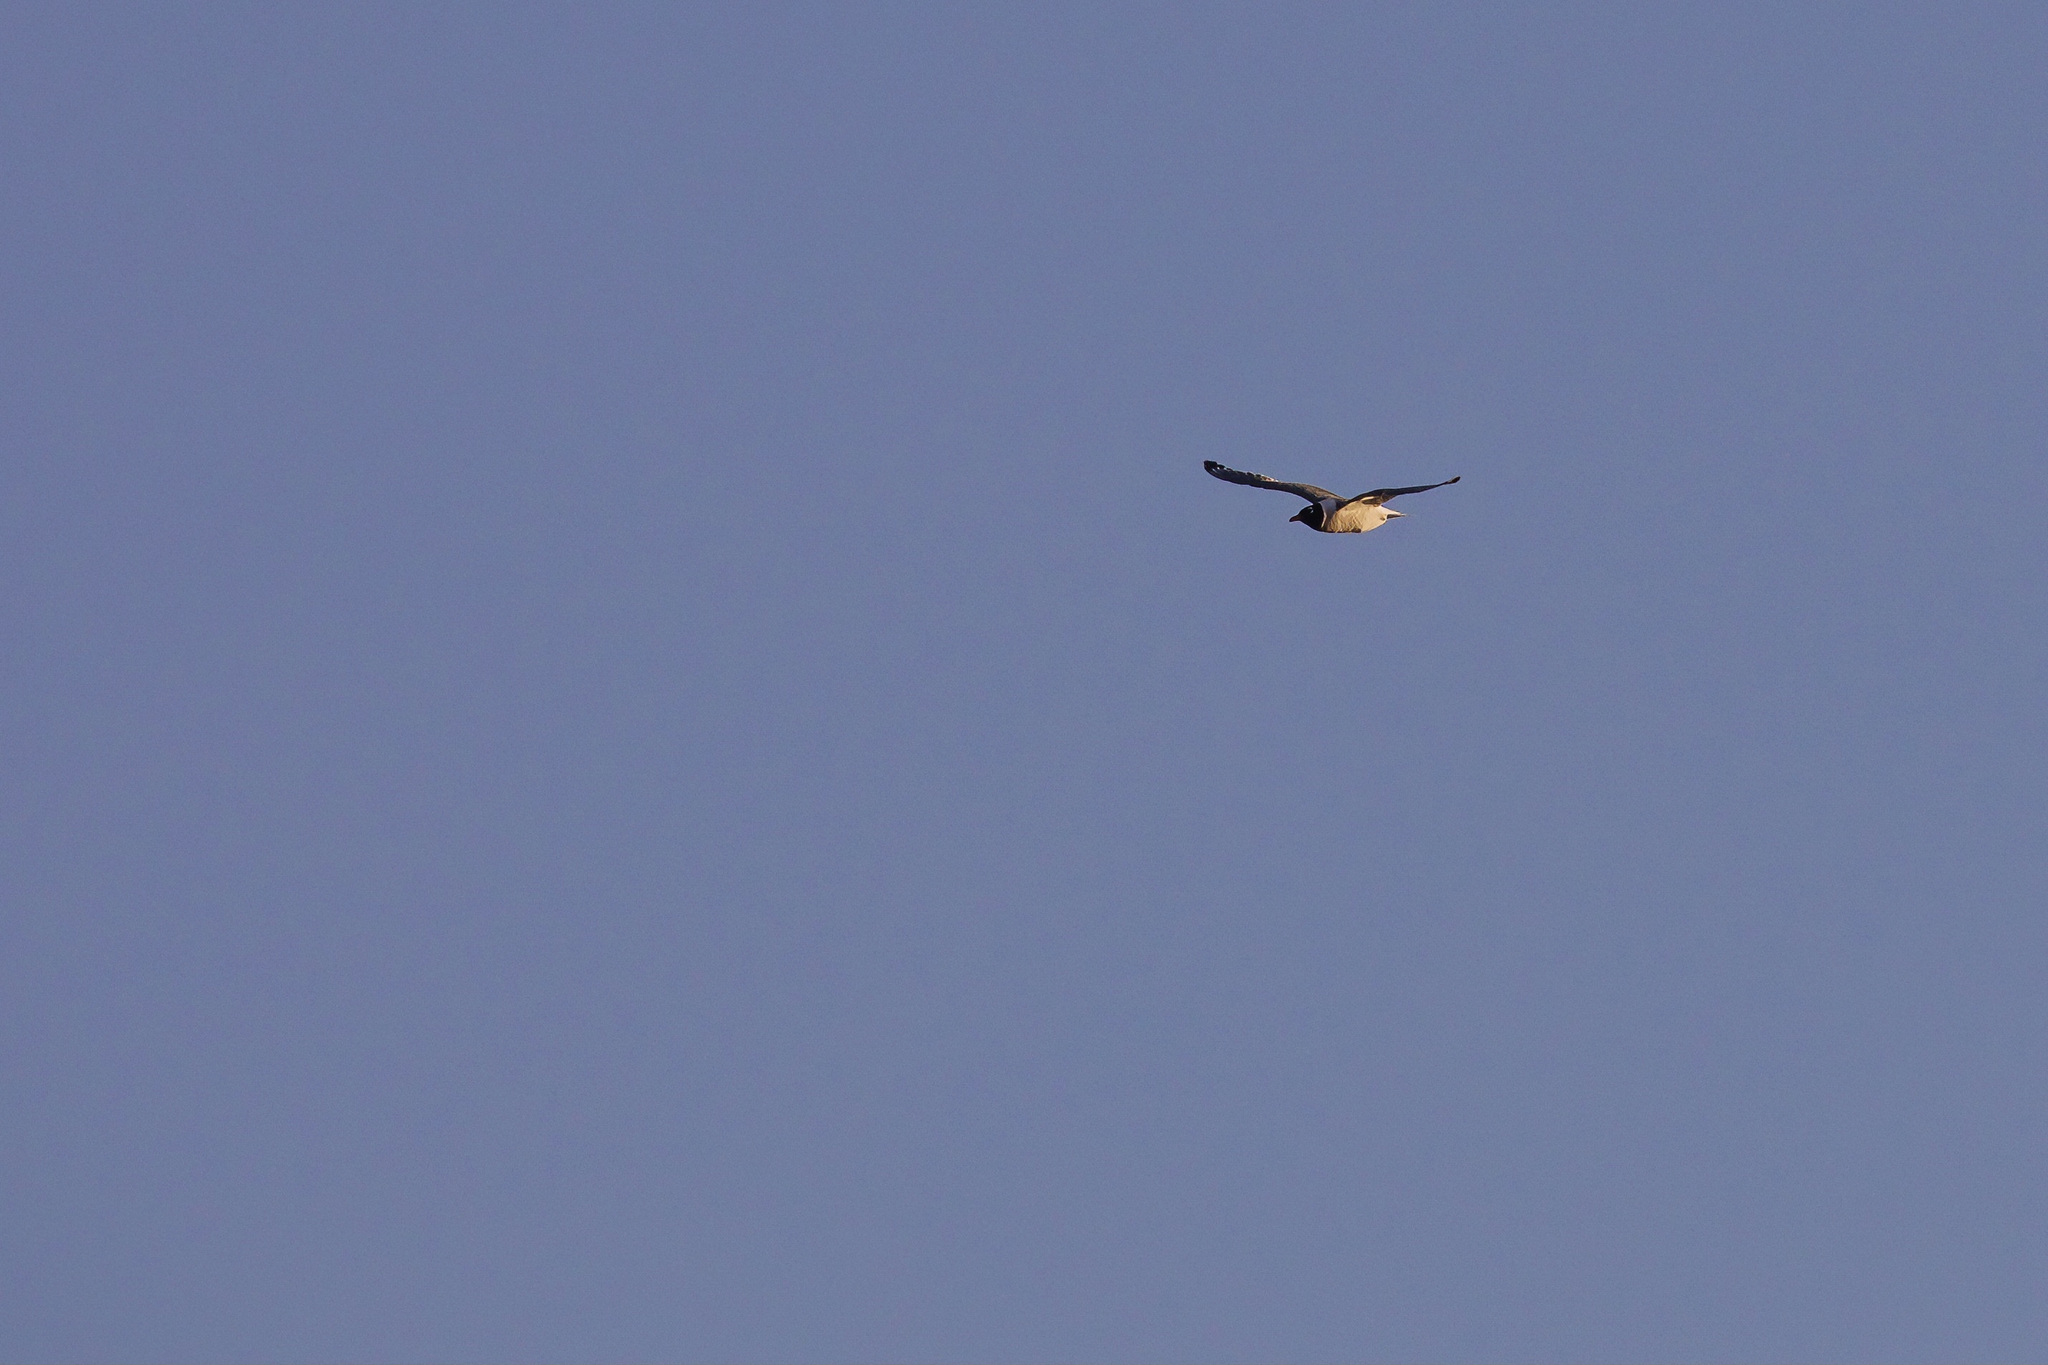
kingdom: Animalia
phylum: Chordata
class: Aves
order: Charadriiformes
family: Laridae
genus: Leucophaeus
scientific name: Leucophaeus pipixcan
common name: Franklin's gull
